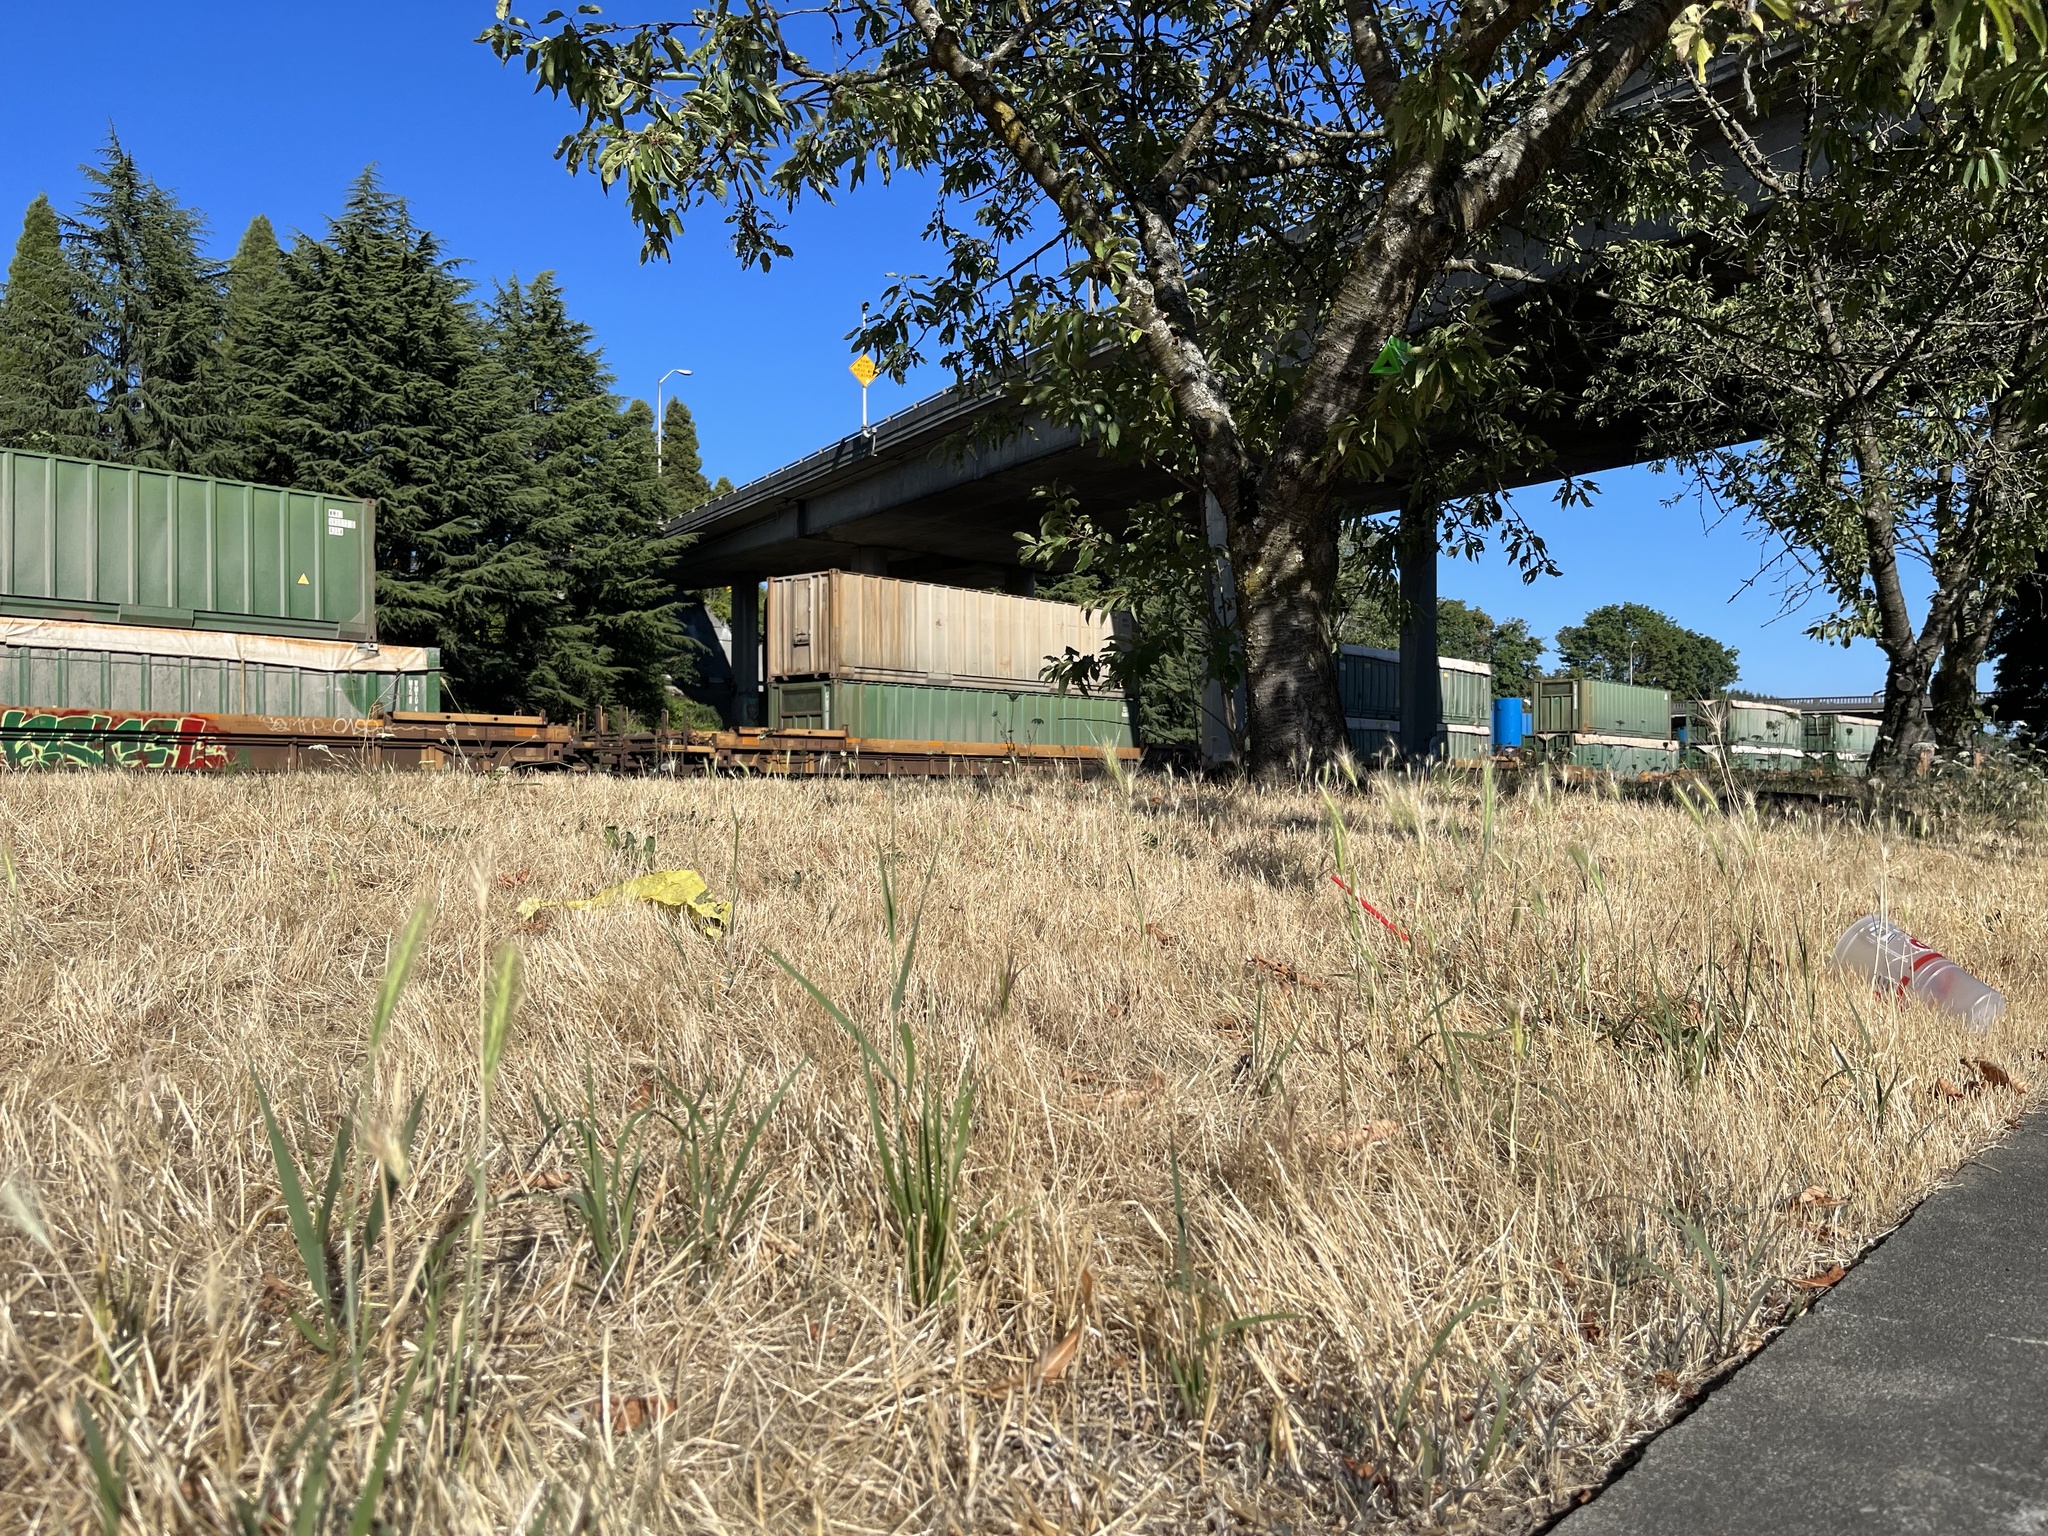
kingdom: Plantae
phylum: Tracheophyta
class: Liliopsida
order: Poales
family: Poaceae
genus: Hordeum
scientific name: Hordeum murinum
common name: Wall barley
